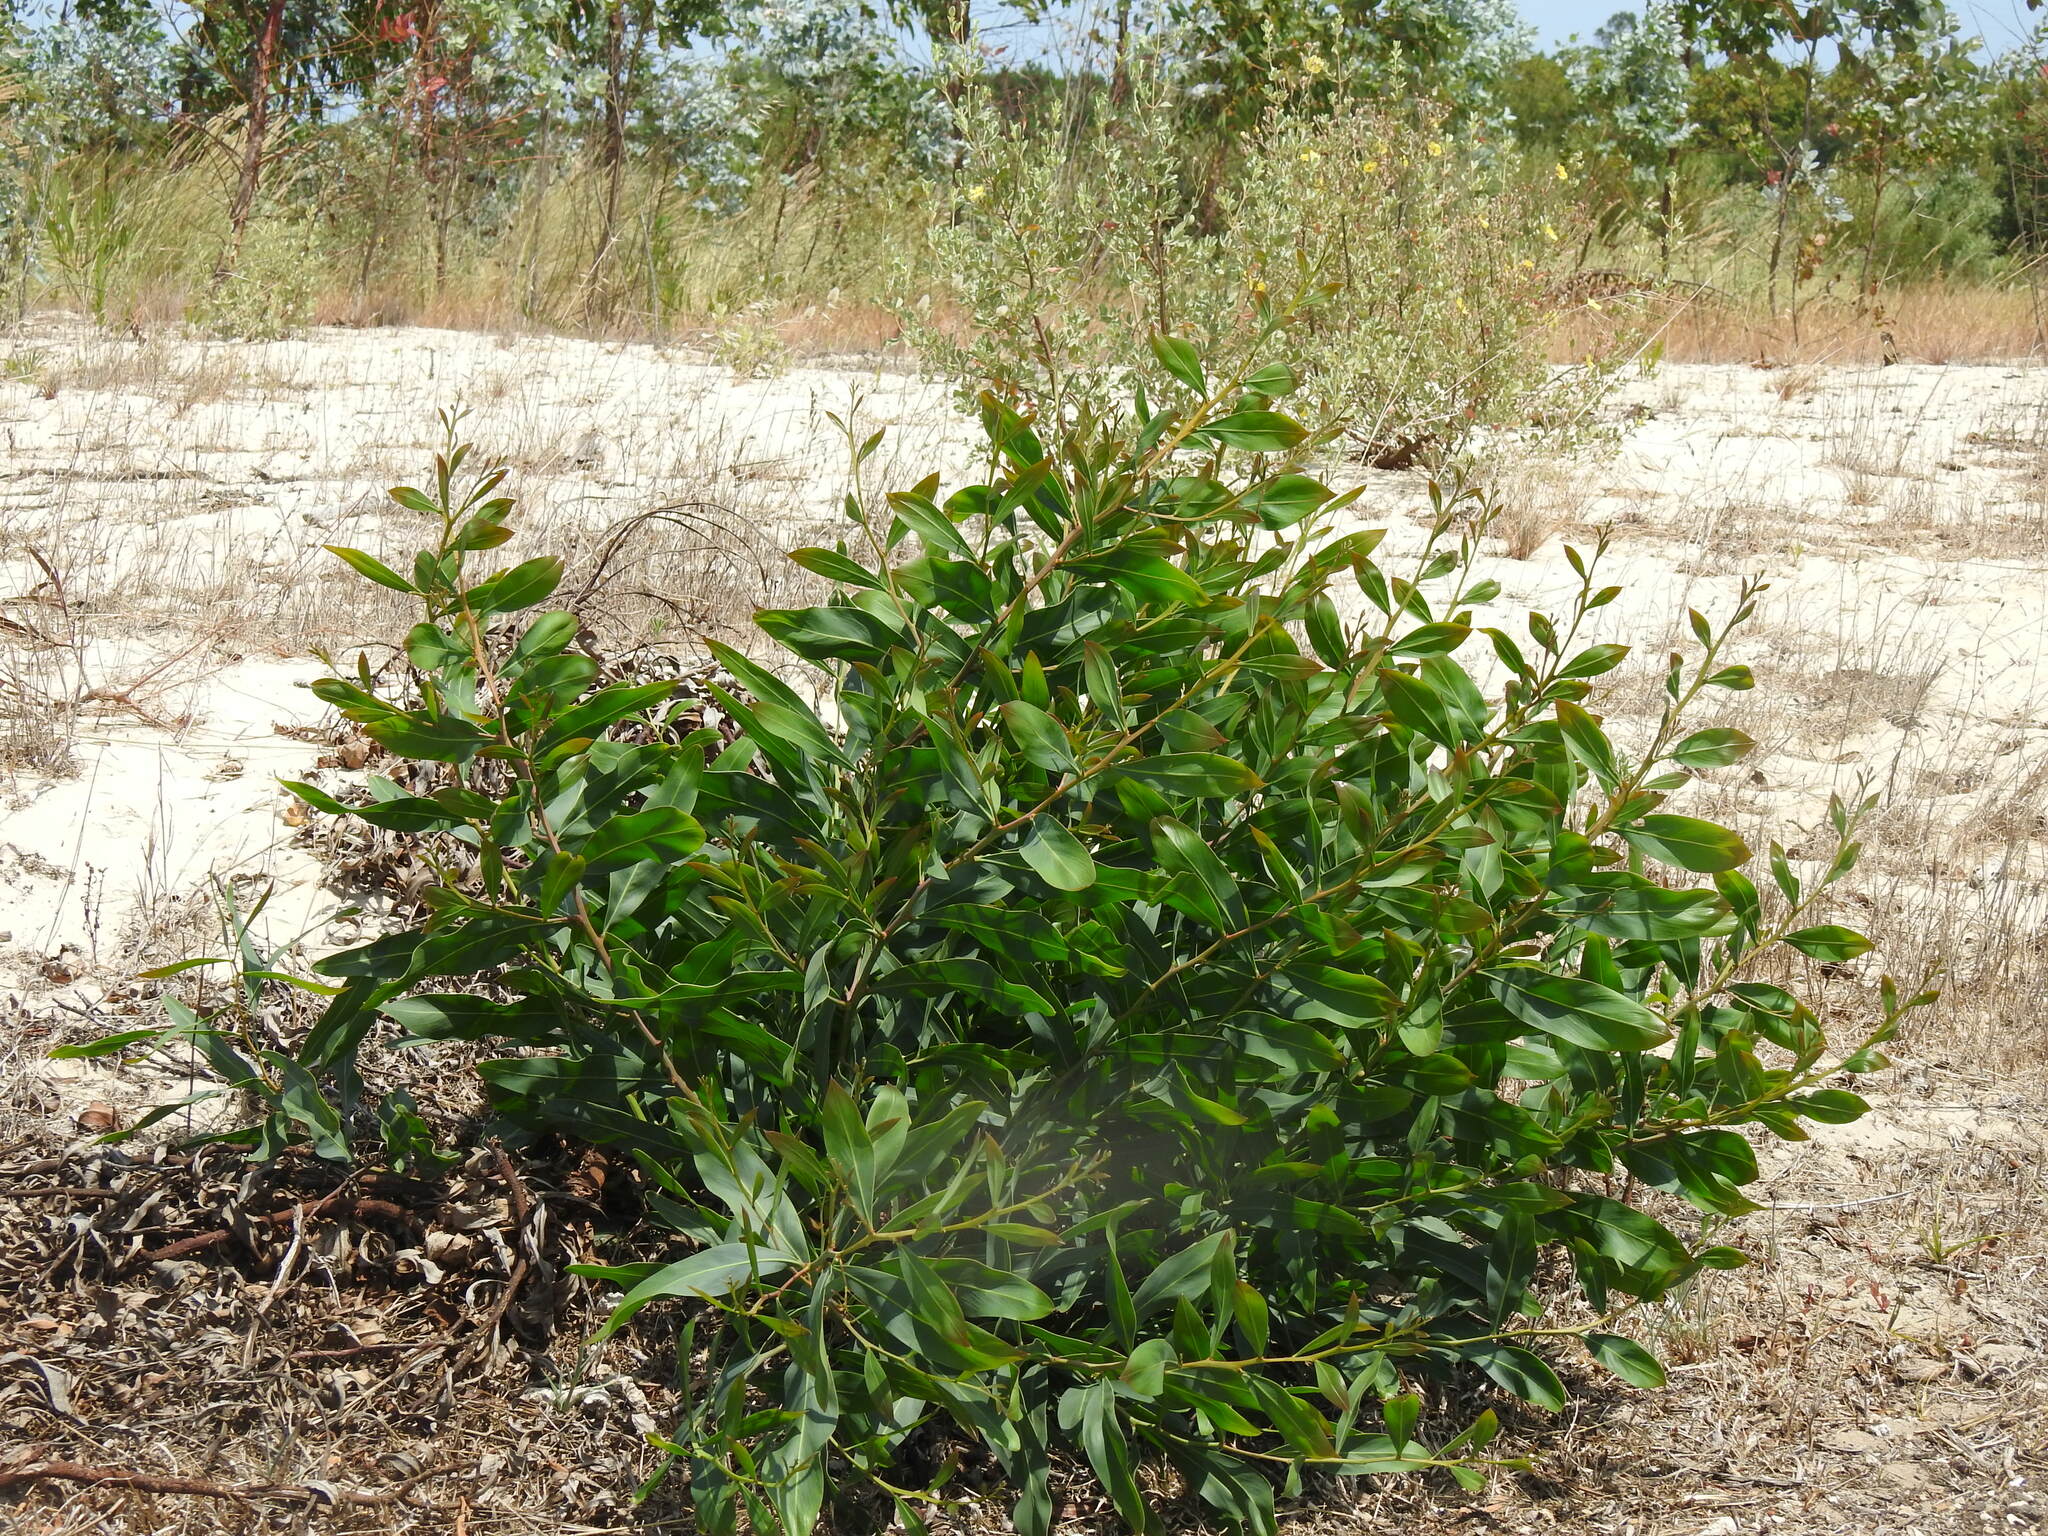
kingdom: Plantae
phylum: Tracheophyta
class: Magnoliopsida
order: Fabales
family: Fabaceae
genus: Acacia
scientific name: Acacia saligna
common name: Orange wattle
